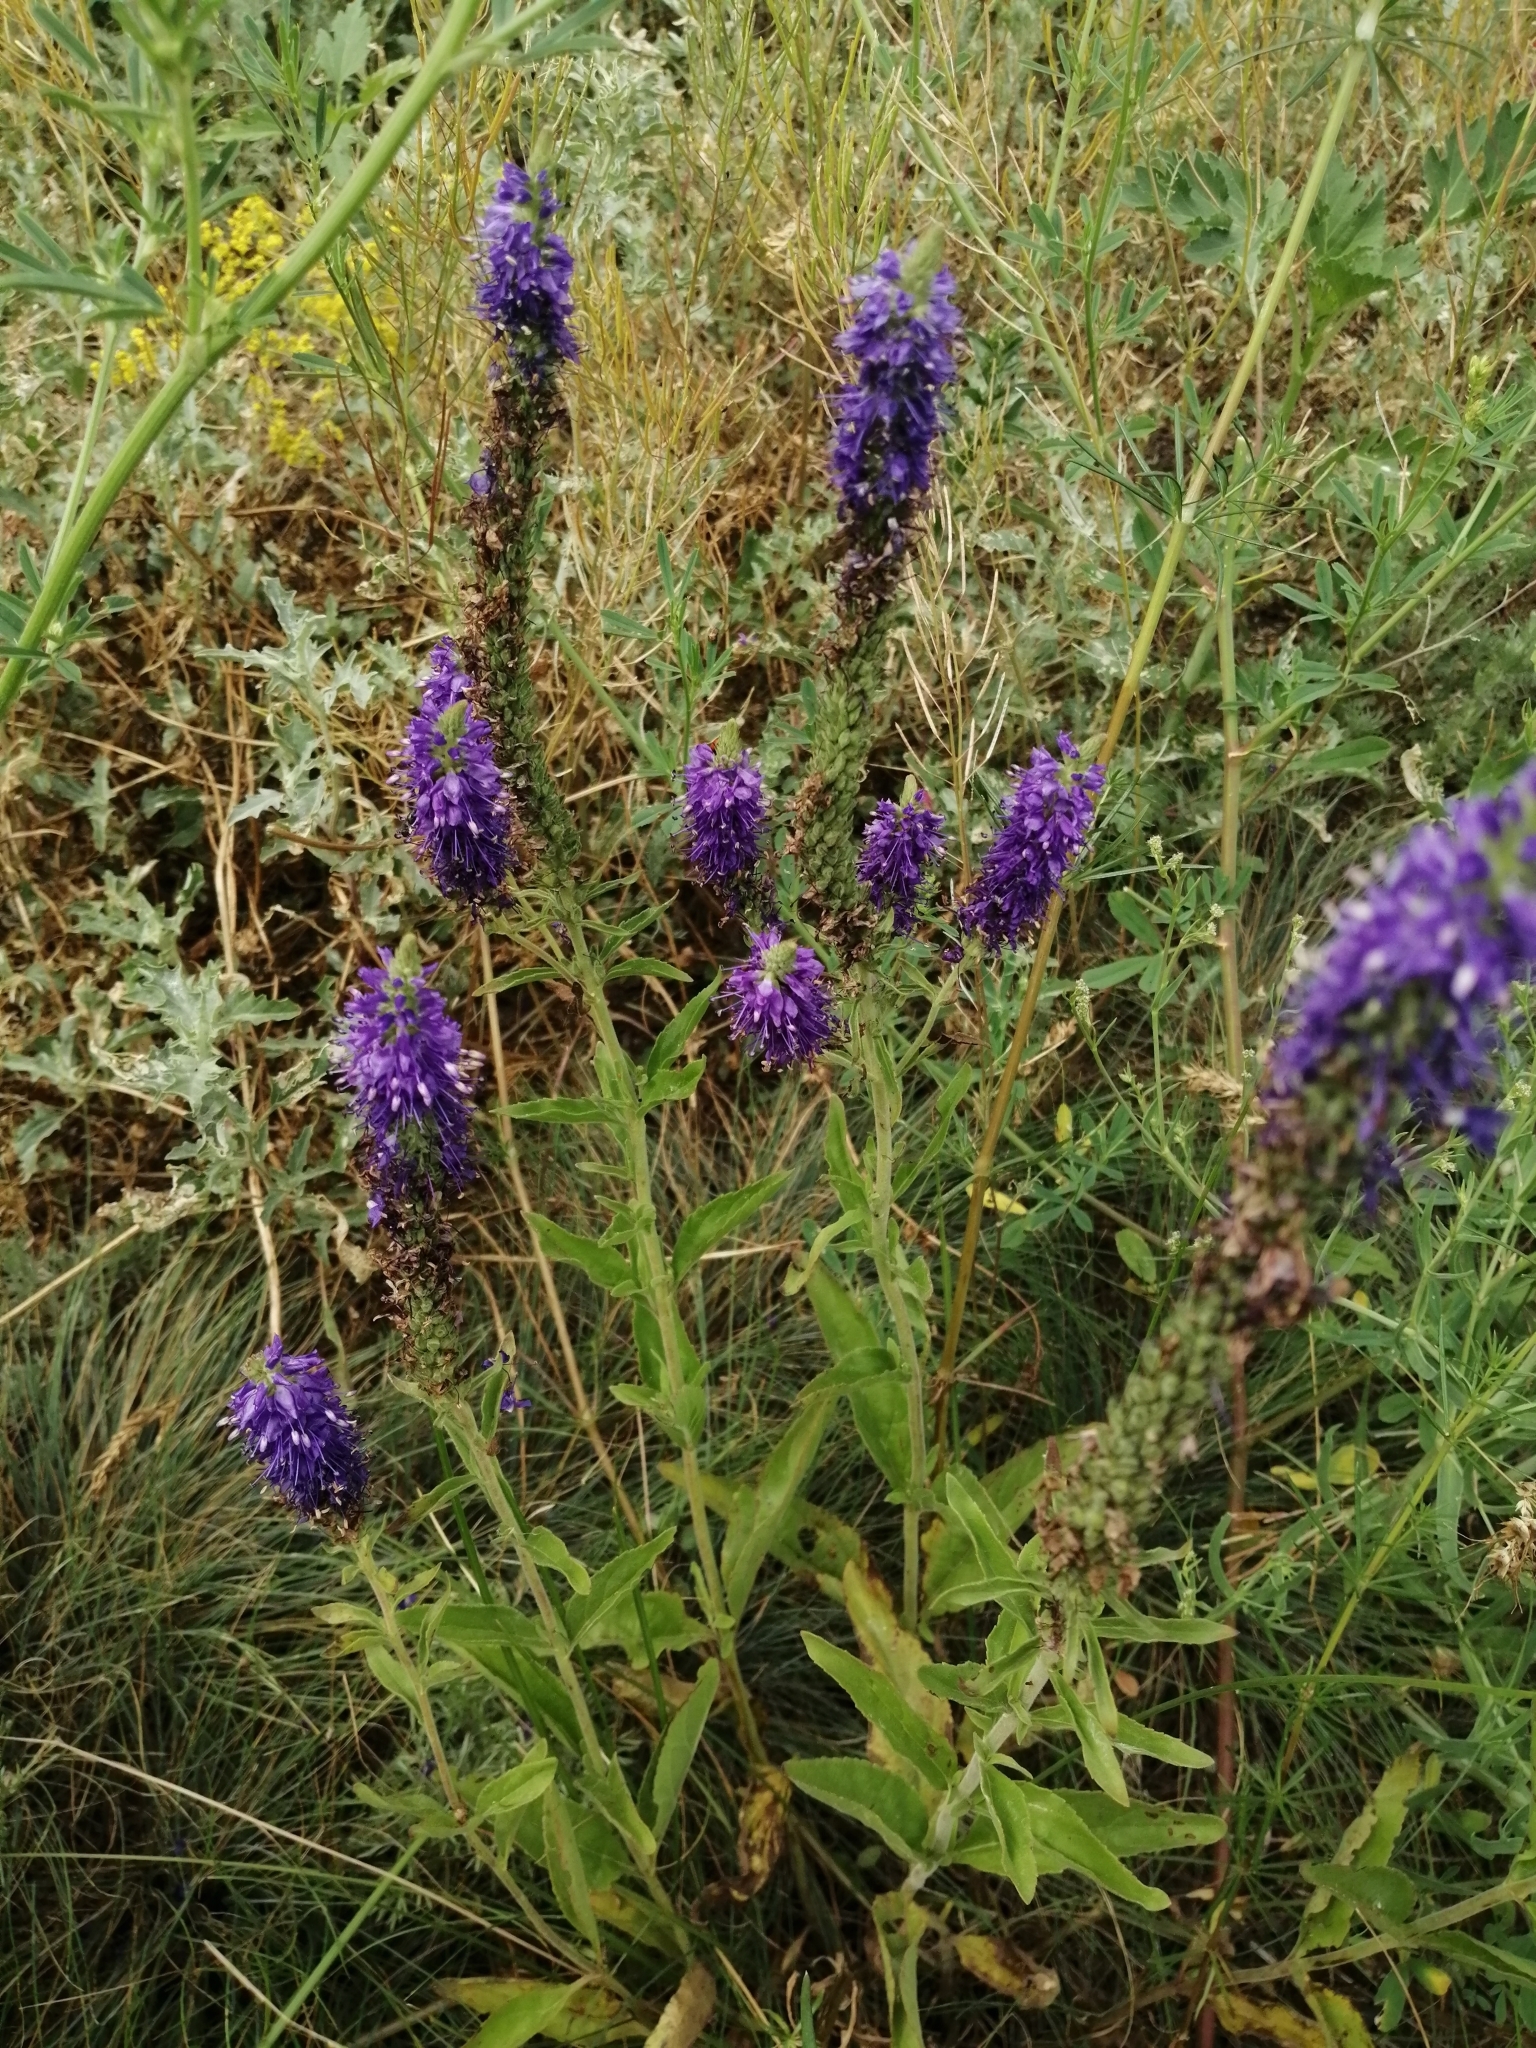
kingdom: Plantae
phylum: Tracheophyta
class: Magnoliopsida
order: Lamiales
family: Plantaginaceae
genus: Veronica
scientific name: Veronica barrelieri
